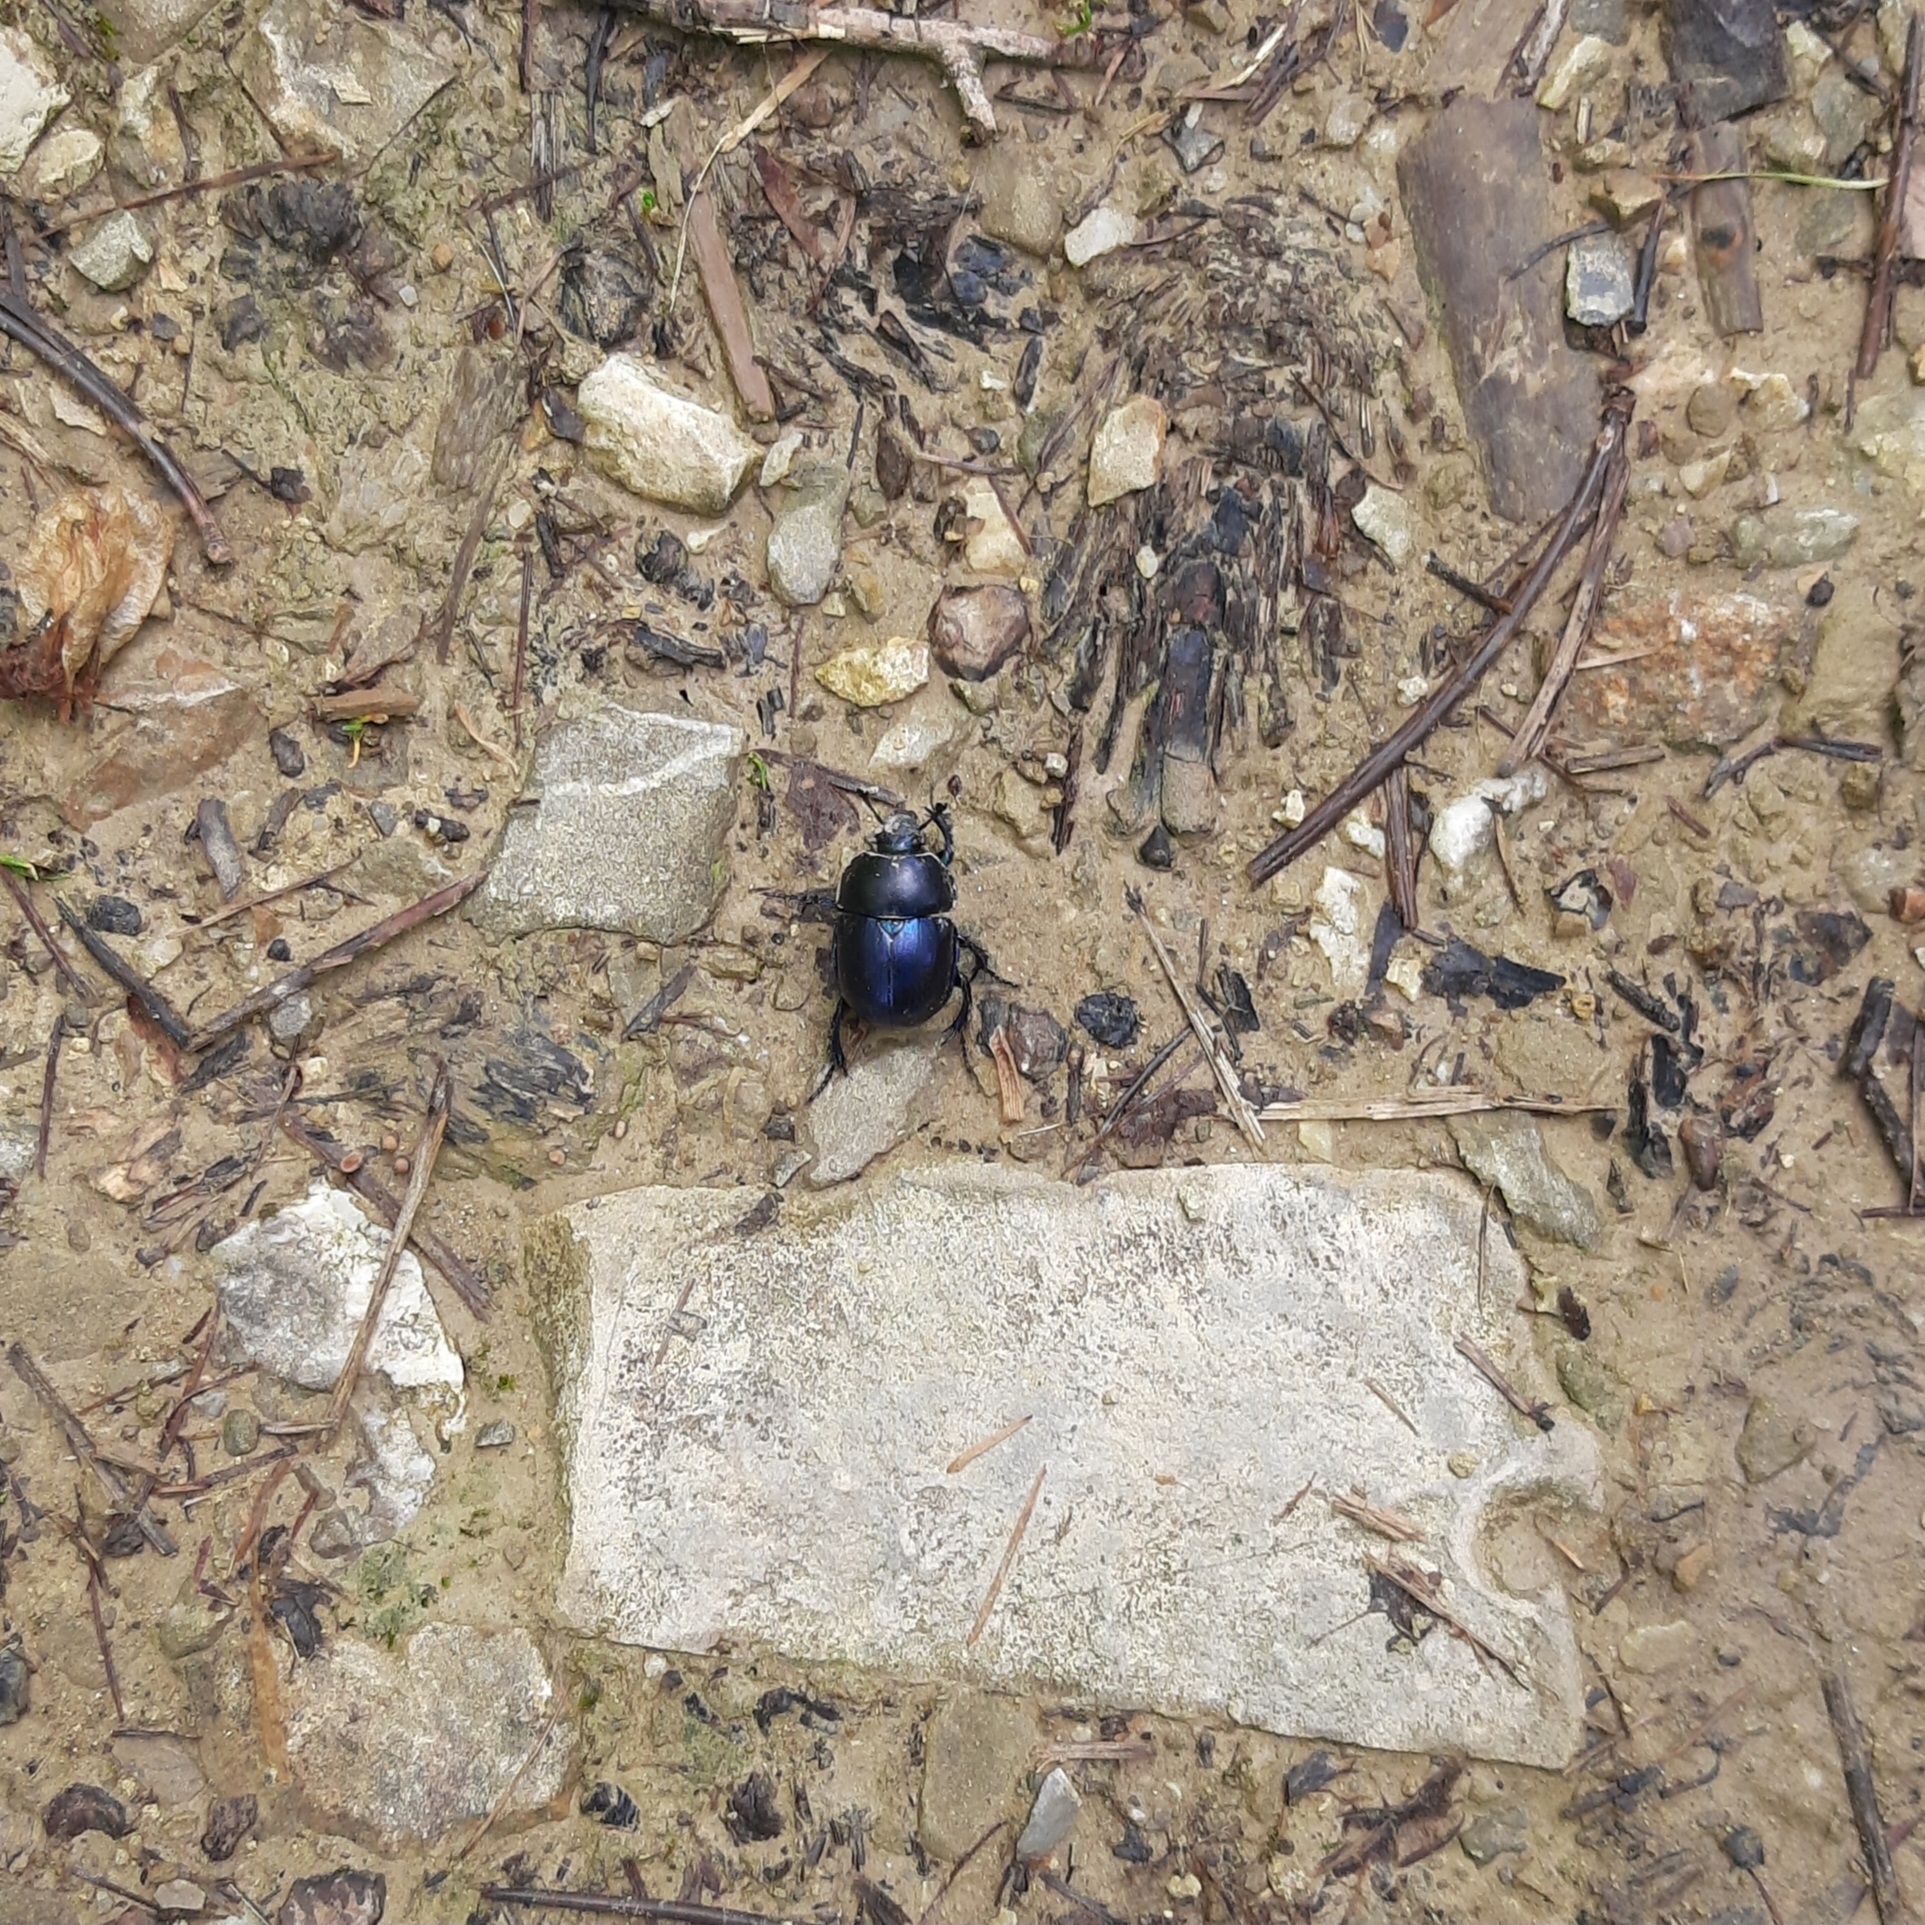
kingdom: Animalia
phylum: Arthropoda
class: Insecta
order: Coleoptera
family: Geotrupidae
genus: Trypocopris
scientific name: Trypocopris vernalis
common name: Spring dumbledor
